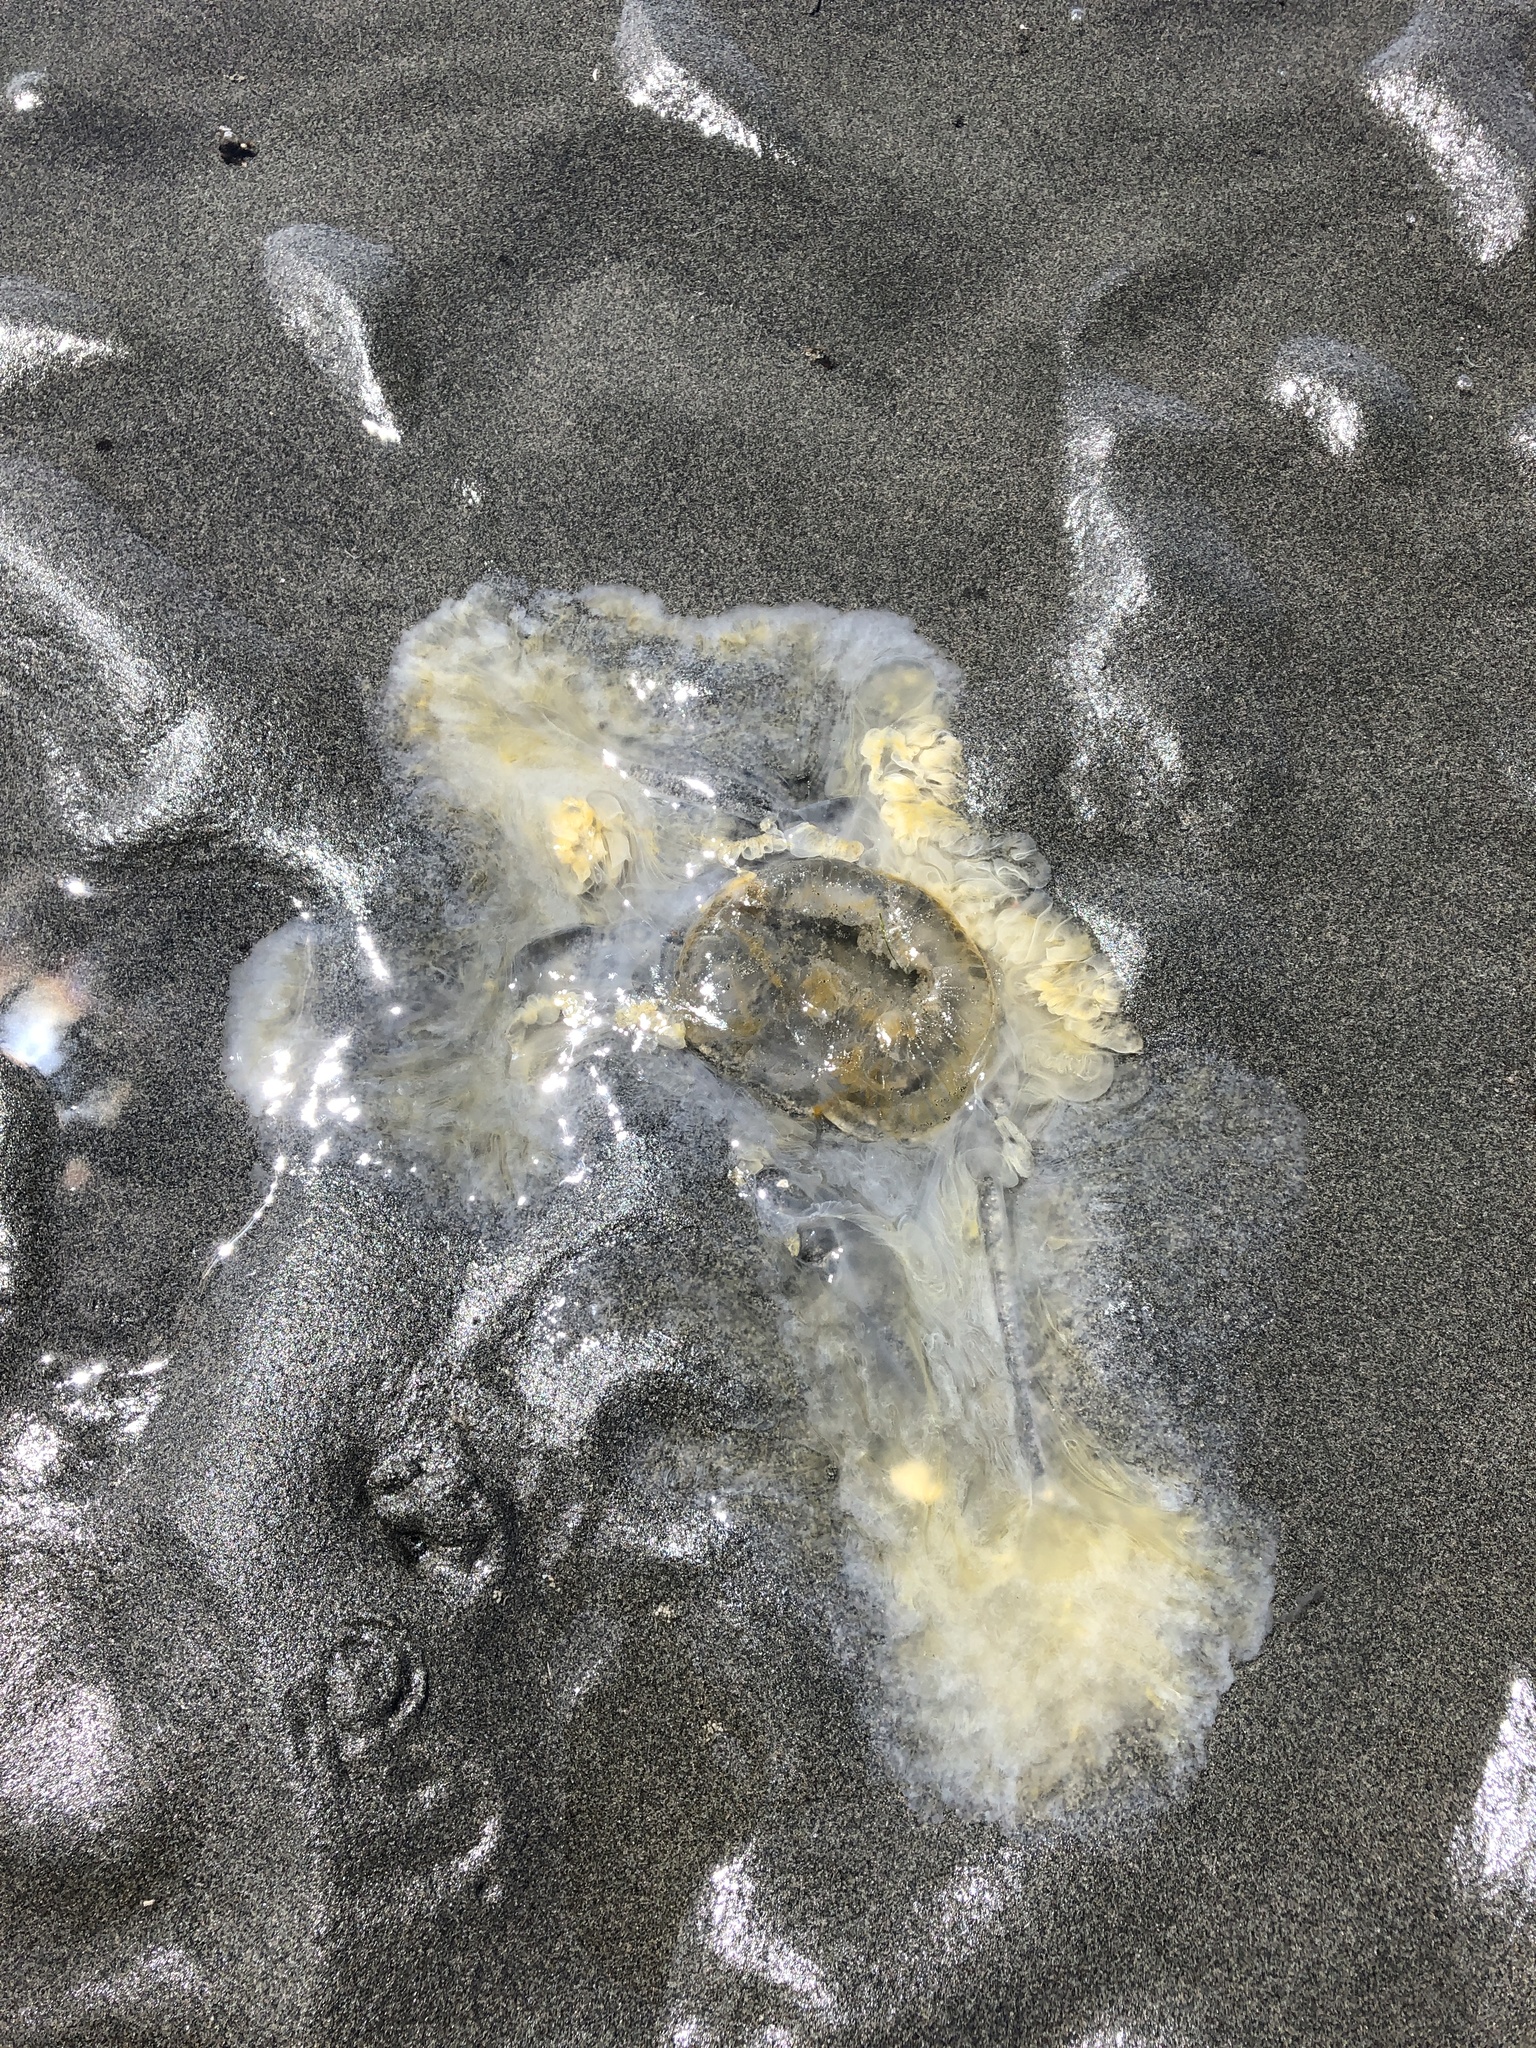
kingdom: Animalia
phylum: Cnidaria
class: Scyphozoa
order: Semaeostomeae
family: Phacellophoridae
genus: Phacellophora
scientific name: Phacellophora camtschatica
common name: Fried-egg jellyfish
